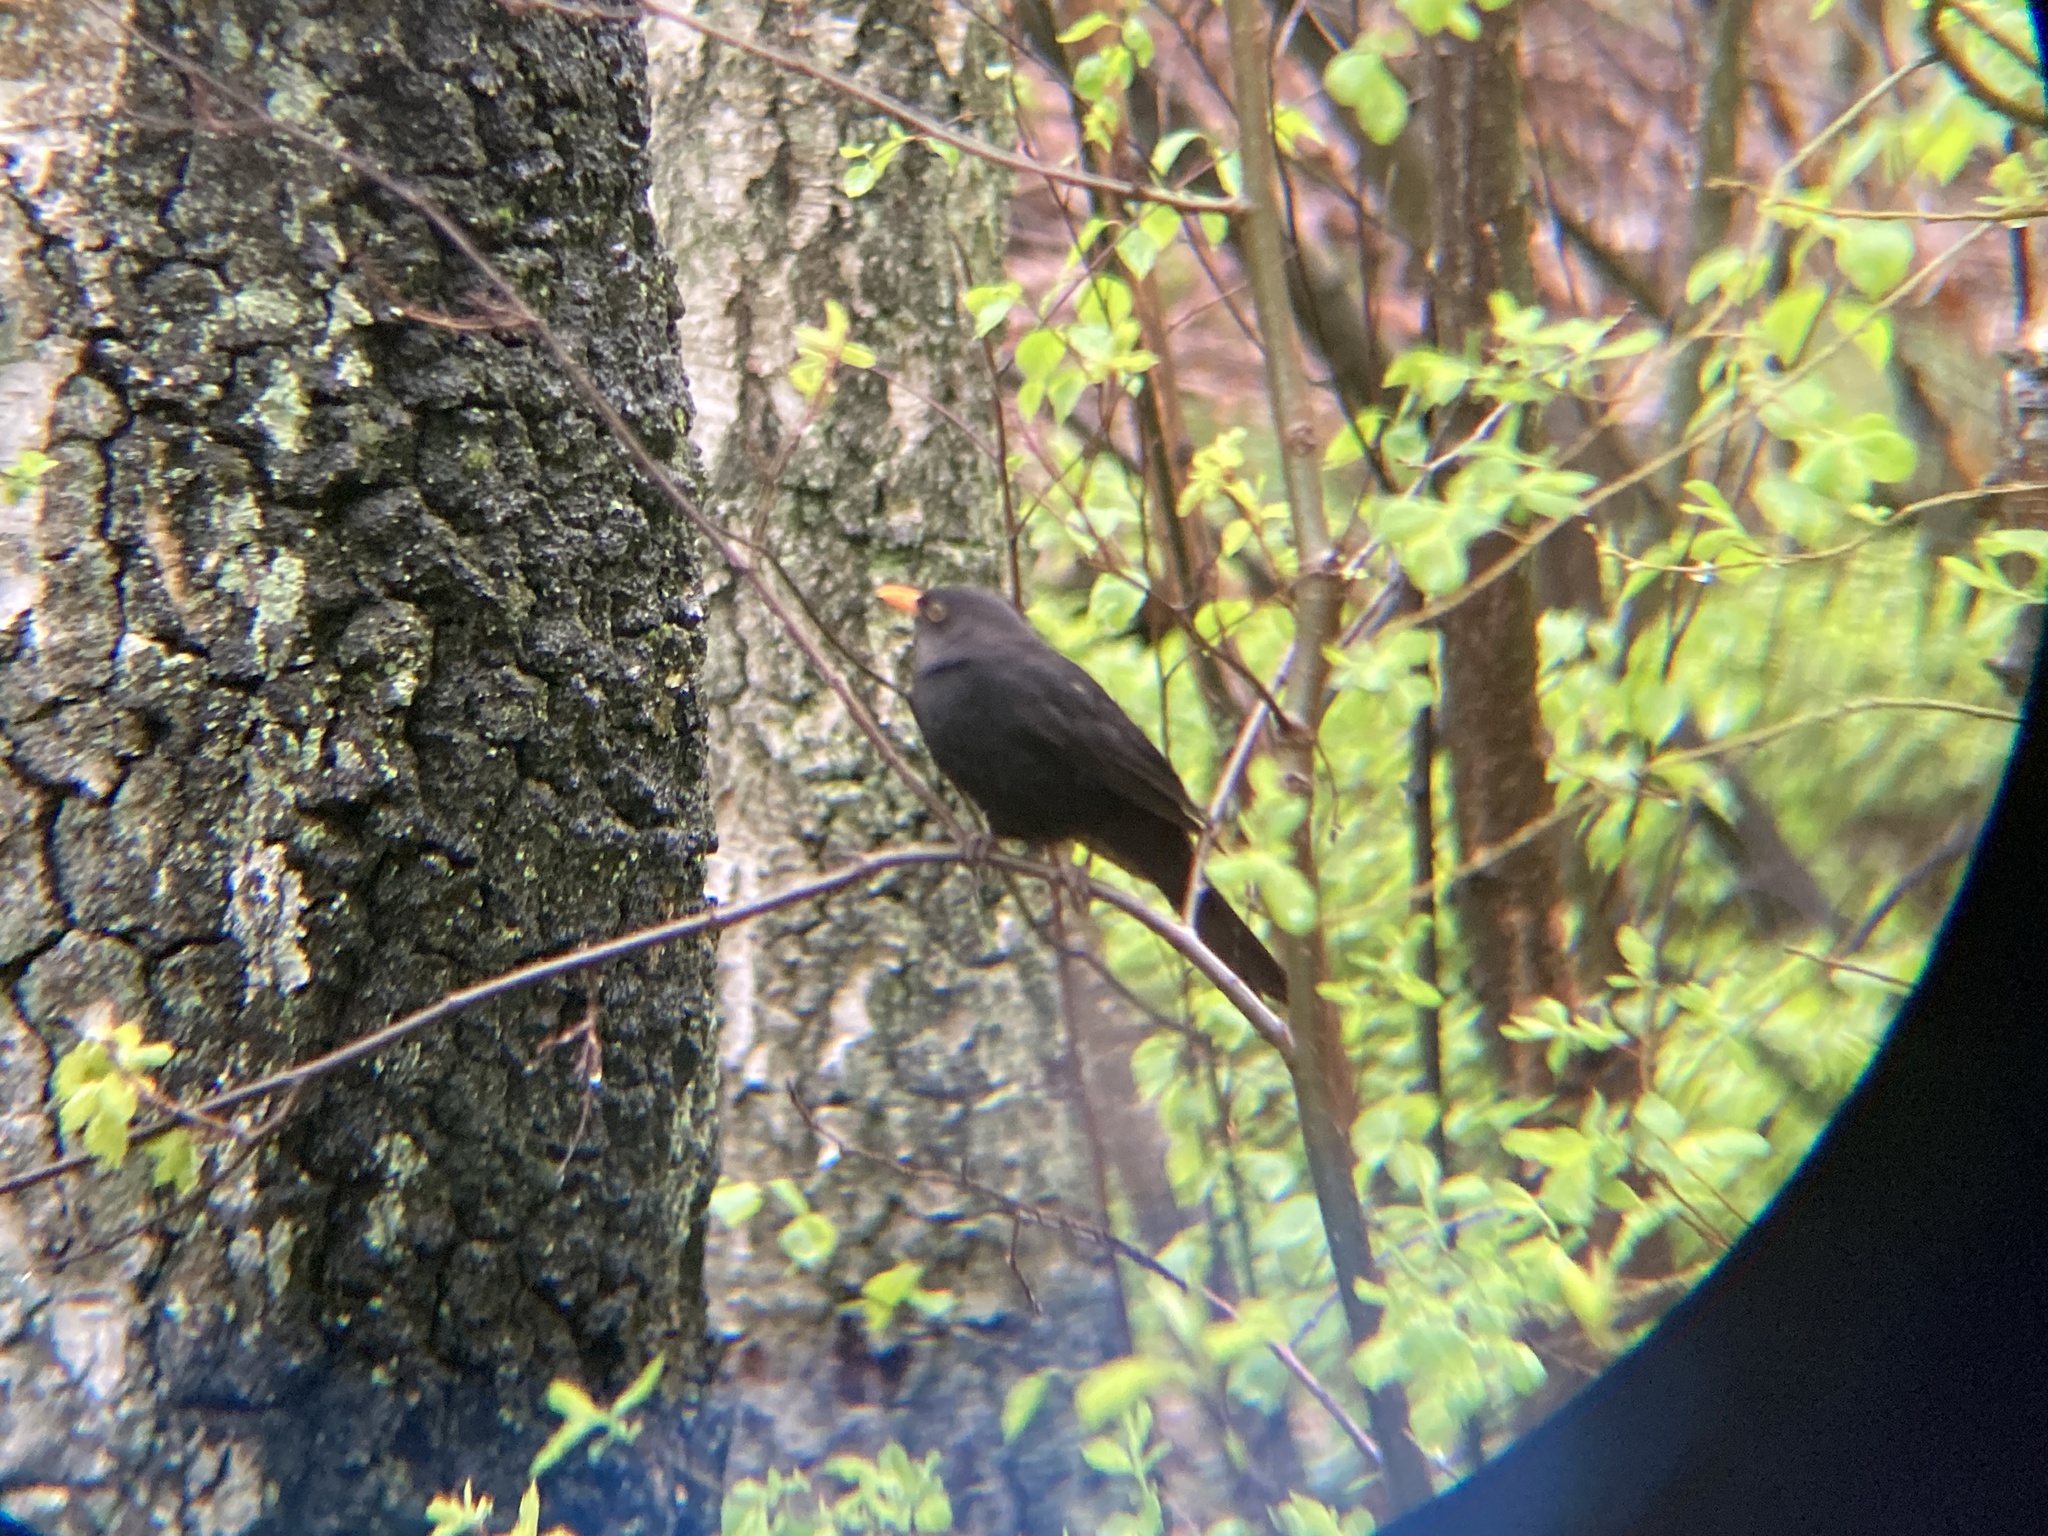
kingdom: Animalia
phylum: Chordata
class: Aves
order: Passeriformes
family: Turdidae
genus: Turdus
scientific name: Turdus merula
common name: Common blackbird
